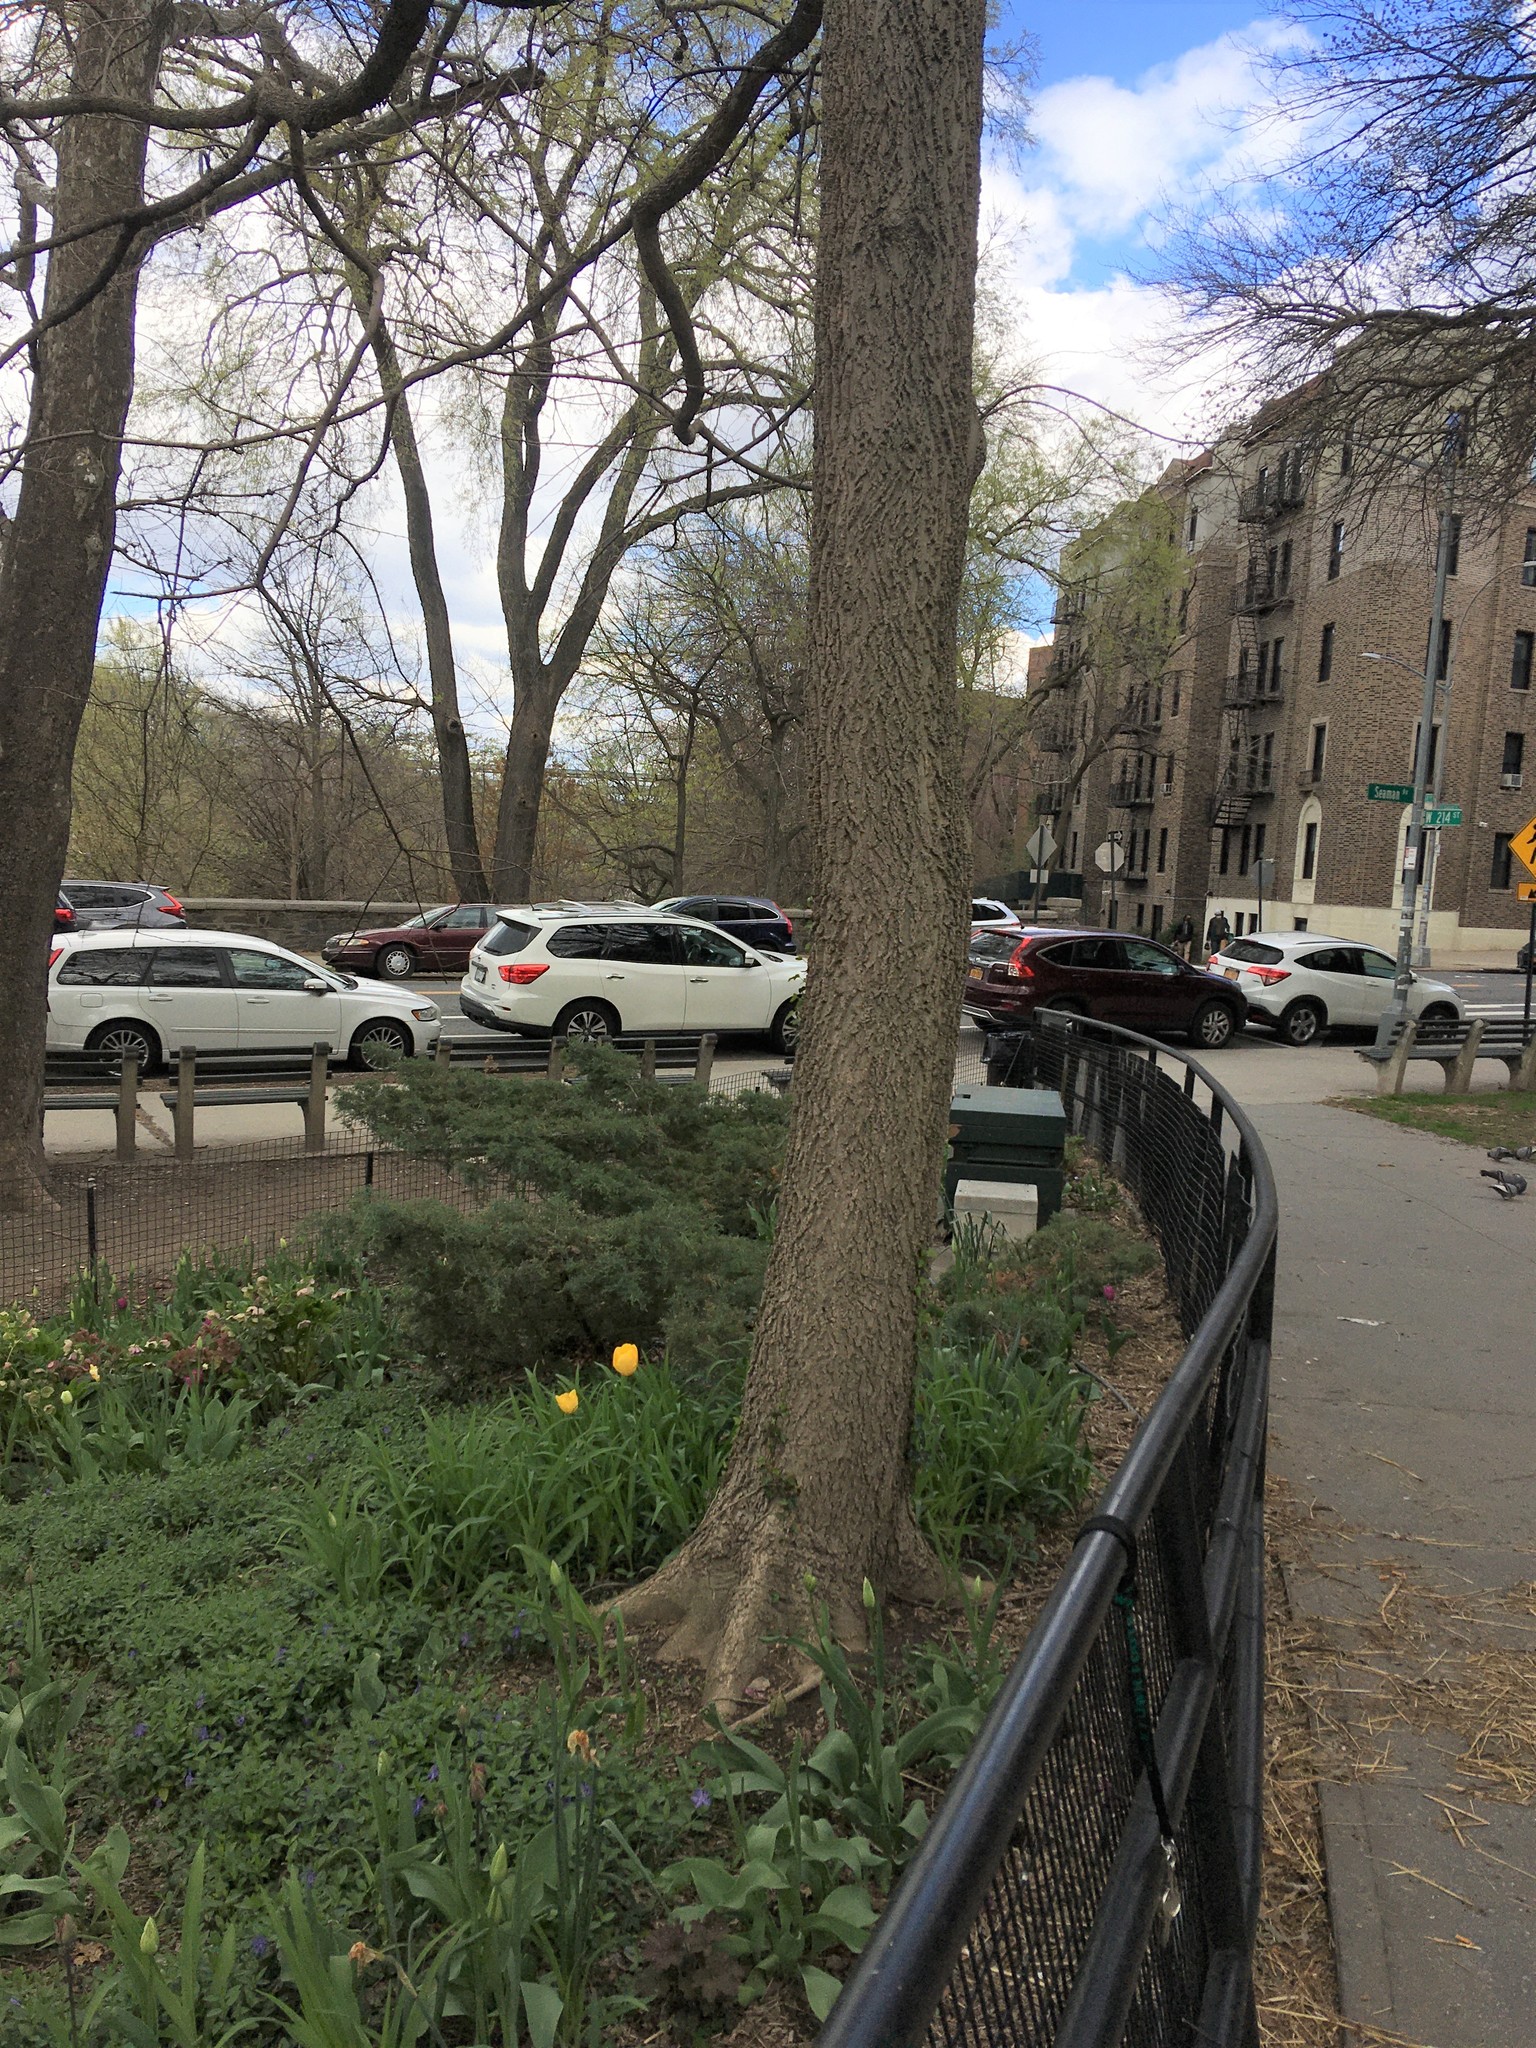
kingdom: Plantae
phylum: Tracheophyta
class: Magnoliopsida
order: Rosales
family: Cannabaceae
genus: Celtis
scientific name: Celtis occidentalis
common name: Common hackberry
